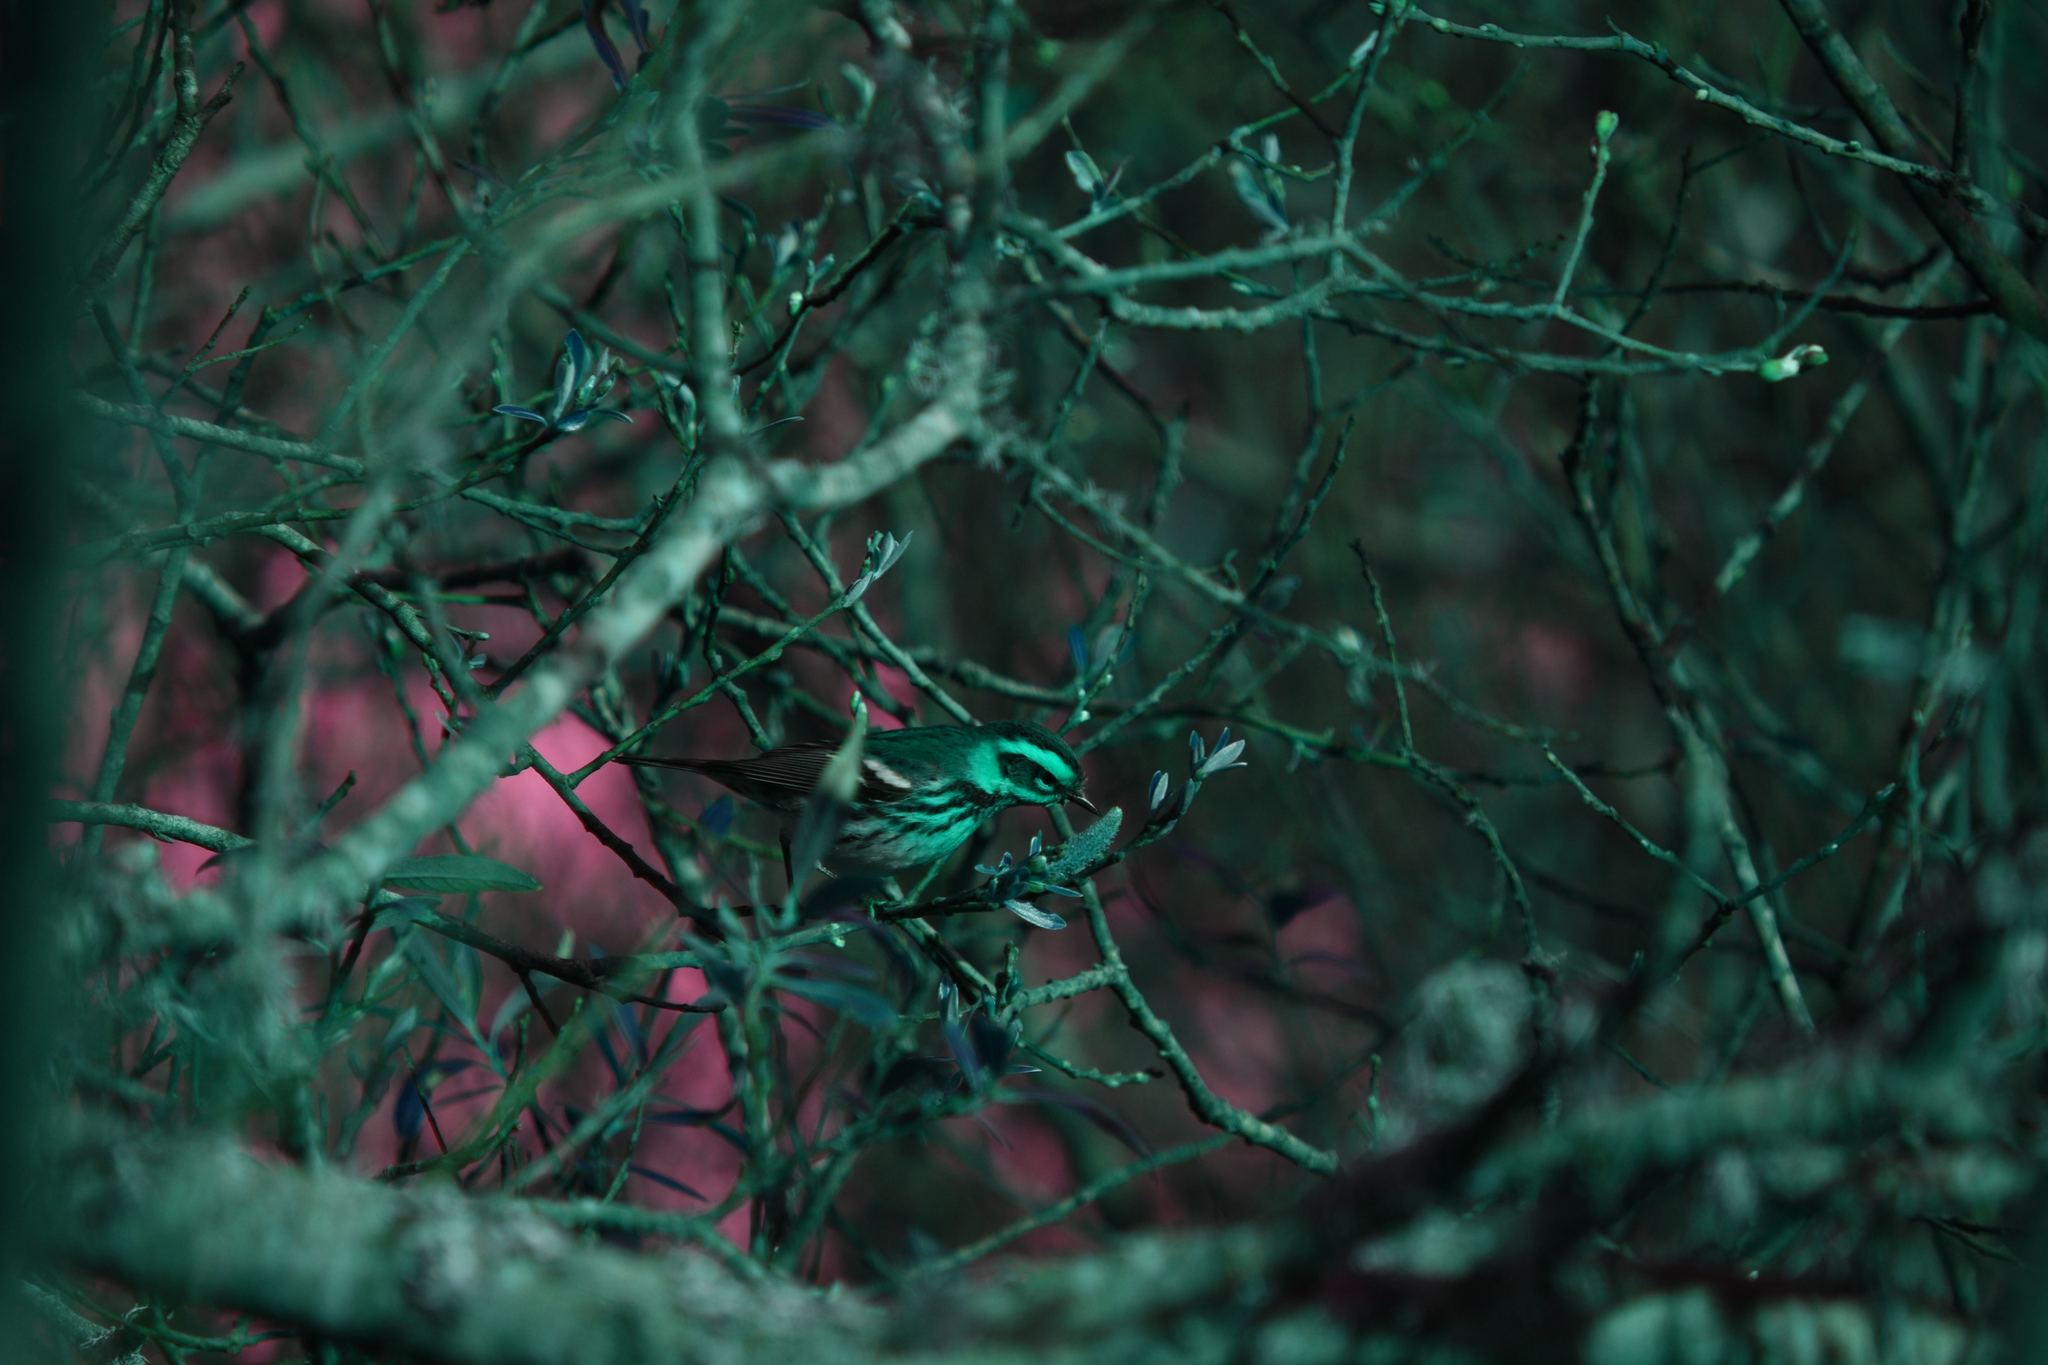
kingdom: Animalia
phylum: Chordata
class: Aves
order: Passeriformes
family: Parulidae
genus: Setophaga
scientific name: Setophaga townsendi
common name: Townsend's warbler
